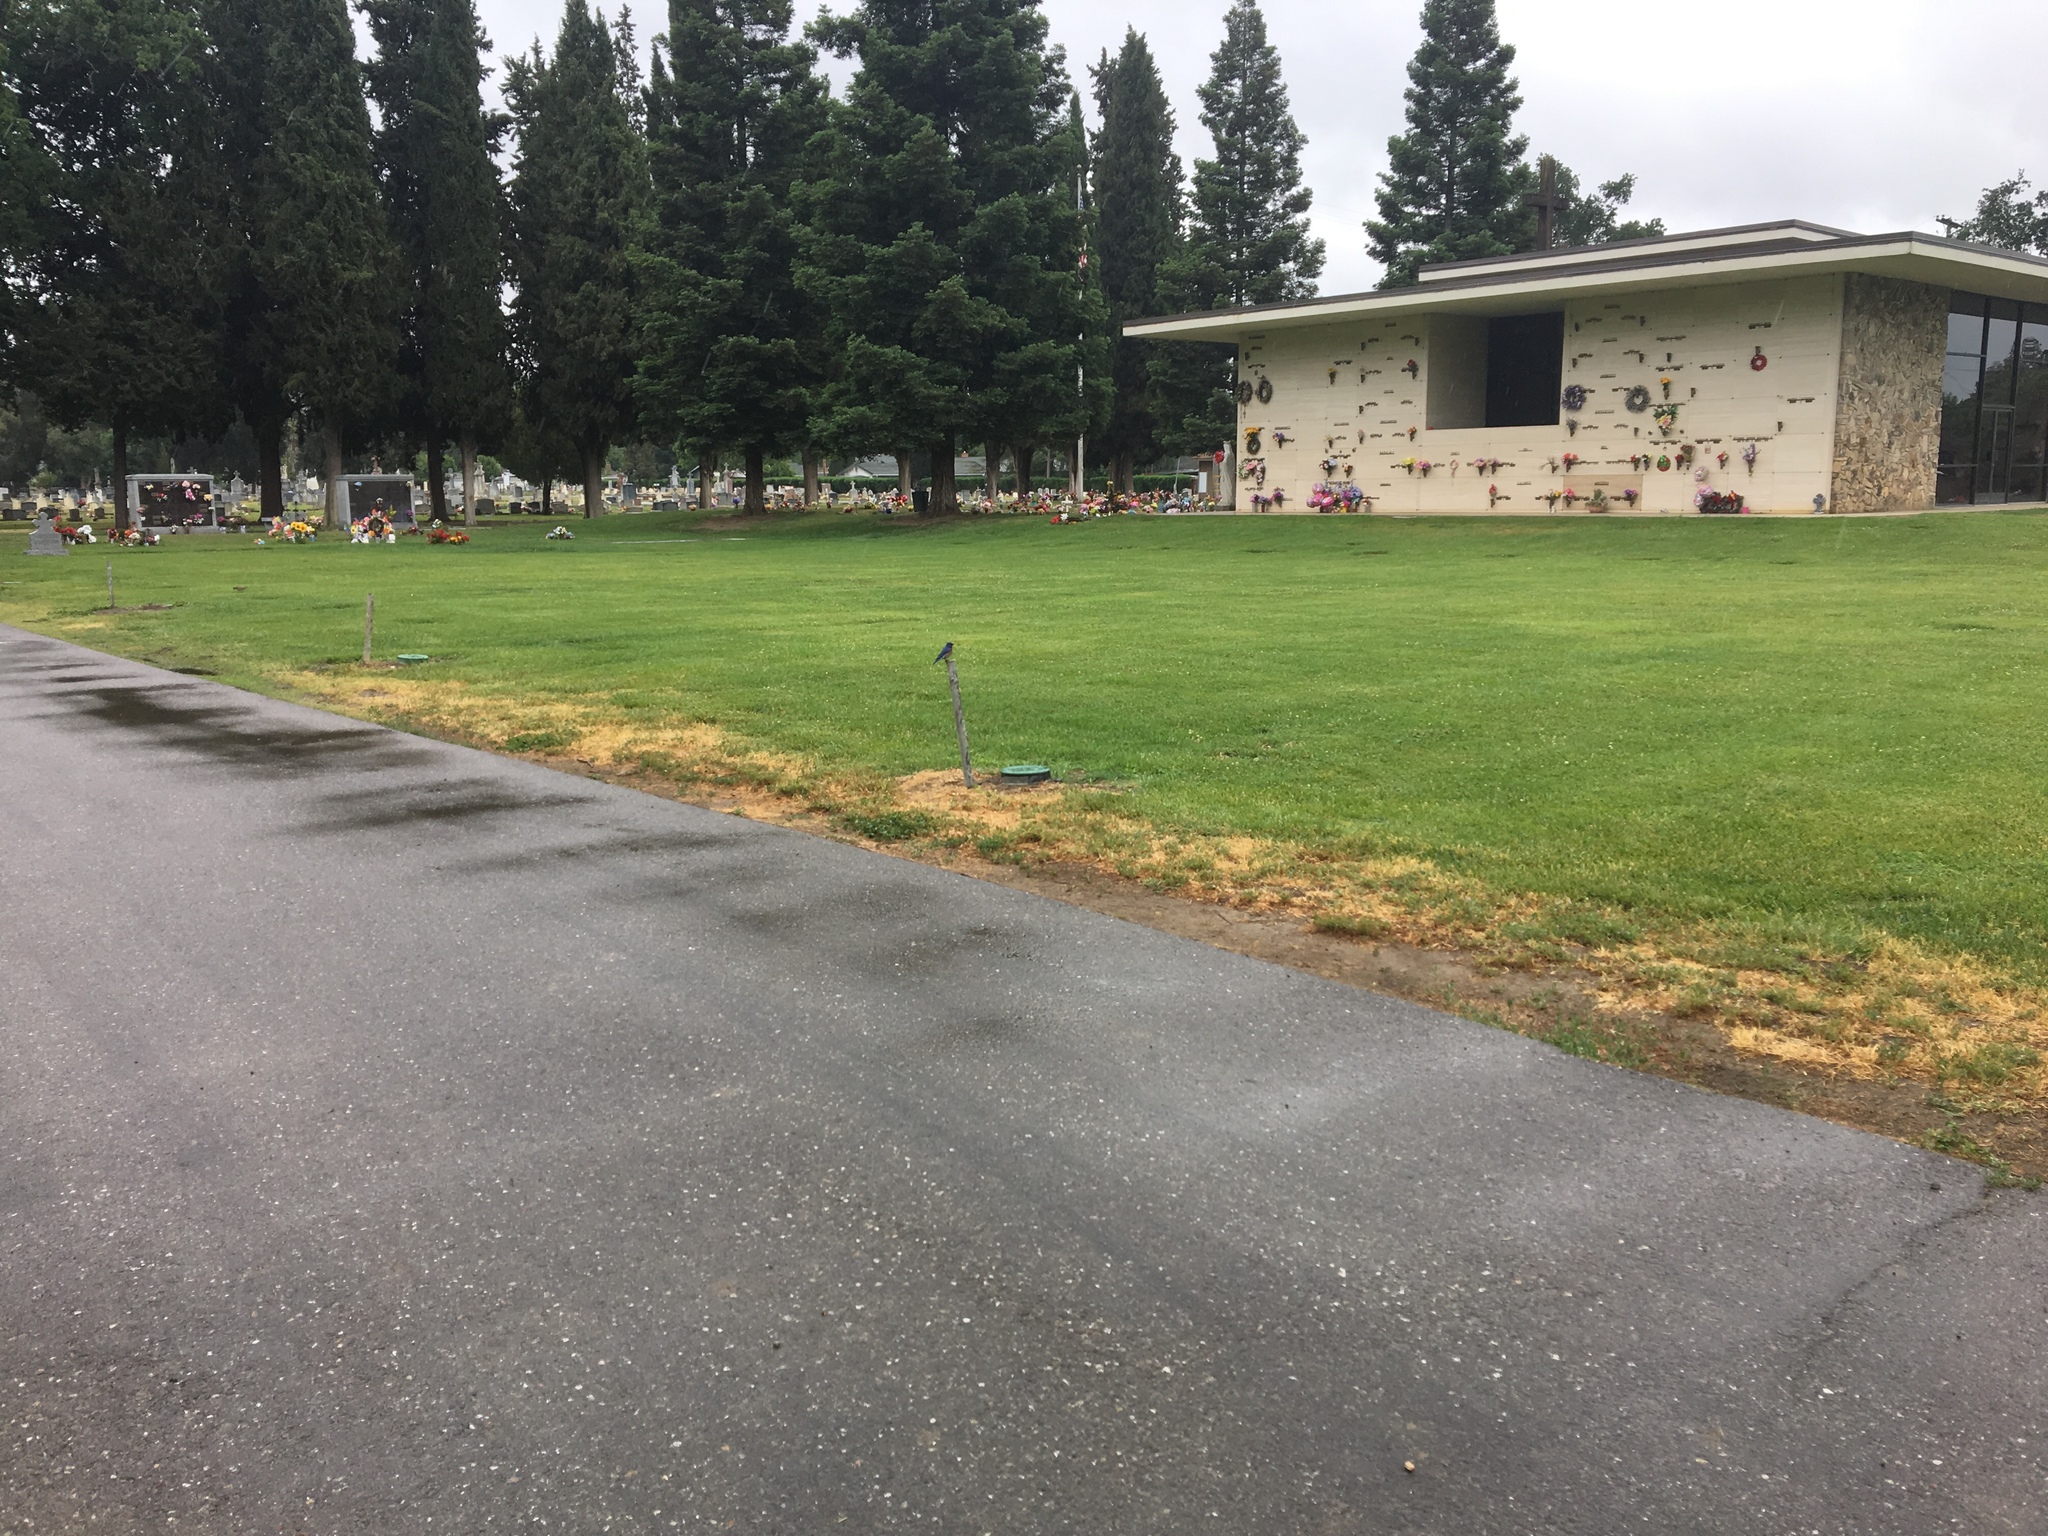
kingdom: Animalia
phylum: Chordata
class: Aves
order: Passeriformes
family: Turdidae
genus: Sialia
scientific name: Sialia mexicana
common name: Western bluebird
